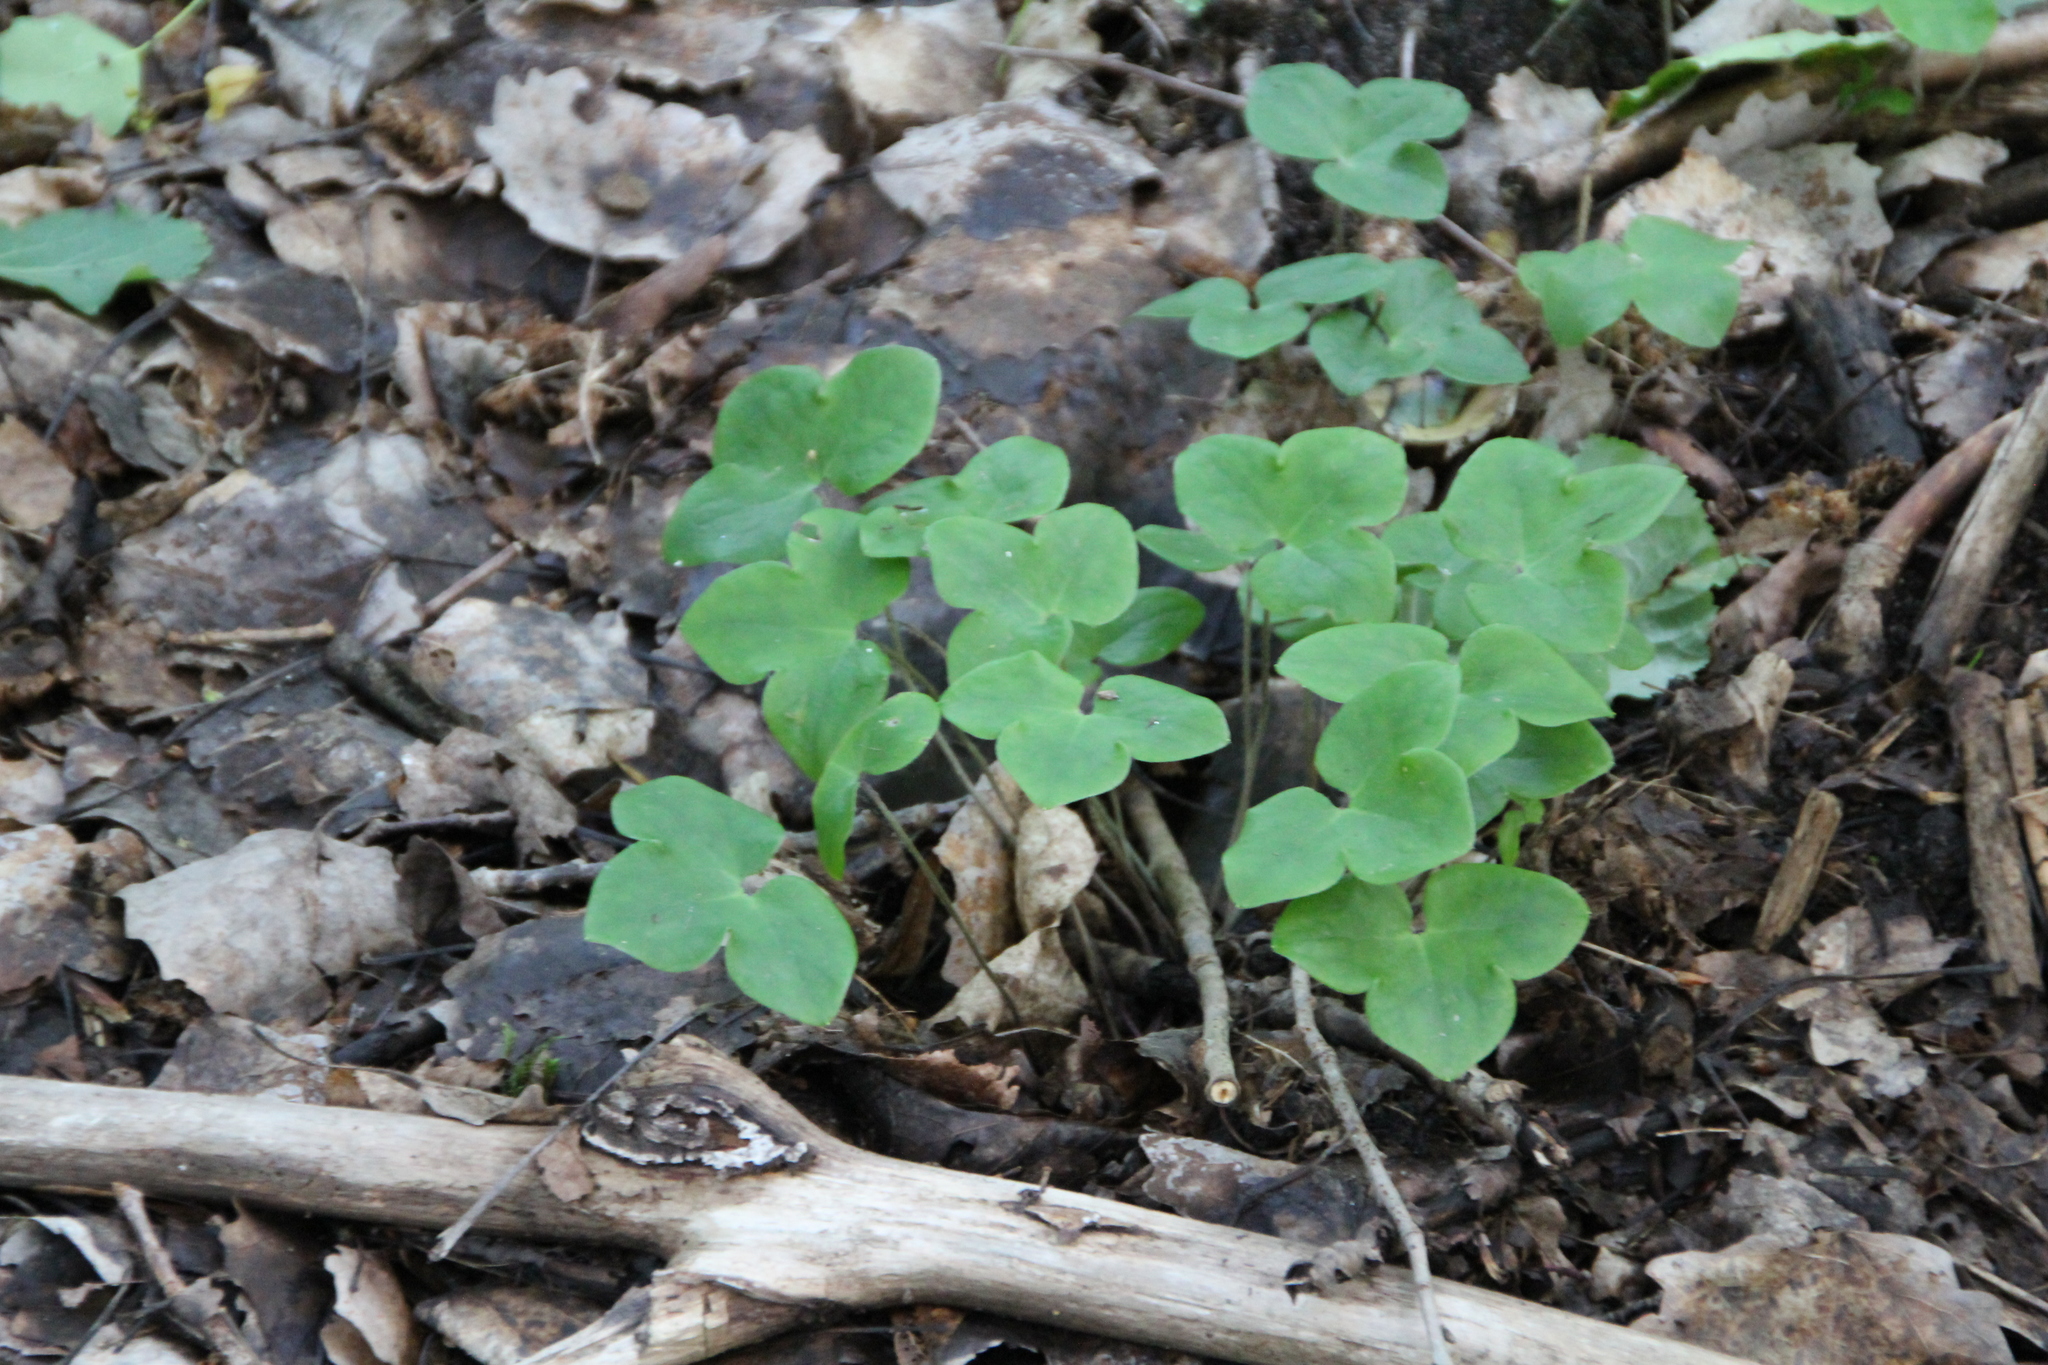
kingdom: Plantae
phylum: Tracheophyta
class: Magnoliopsida
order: Ranunculales
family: Ranunculaceae
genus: Hepatica
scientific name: Hepatica nobilis
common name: Liverleaf
